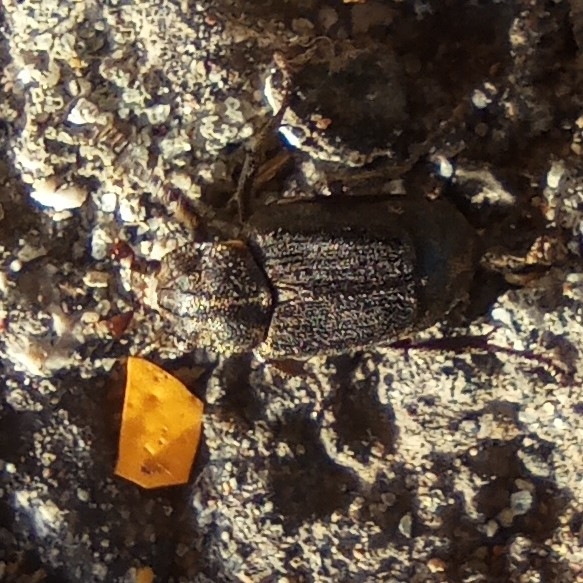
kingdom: Animalia
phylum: Arthropoda
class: Insecta
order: Coleoptera
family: Scarabaeidae
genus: Valgus
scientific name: Valgus hemipterus
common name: Bug flower chafer
